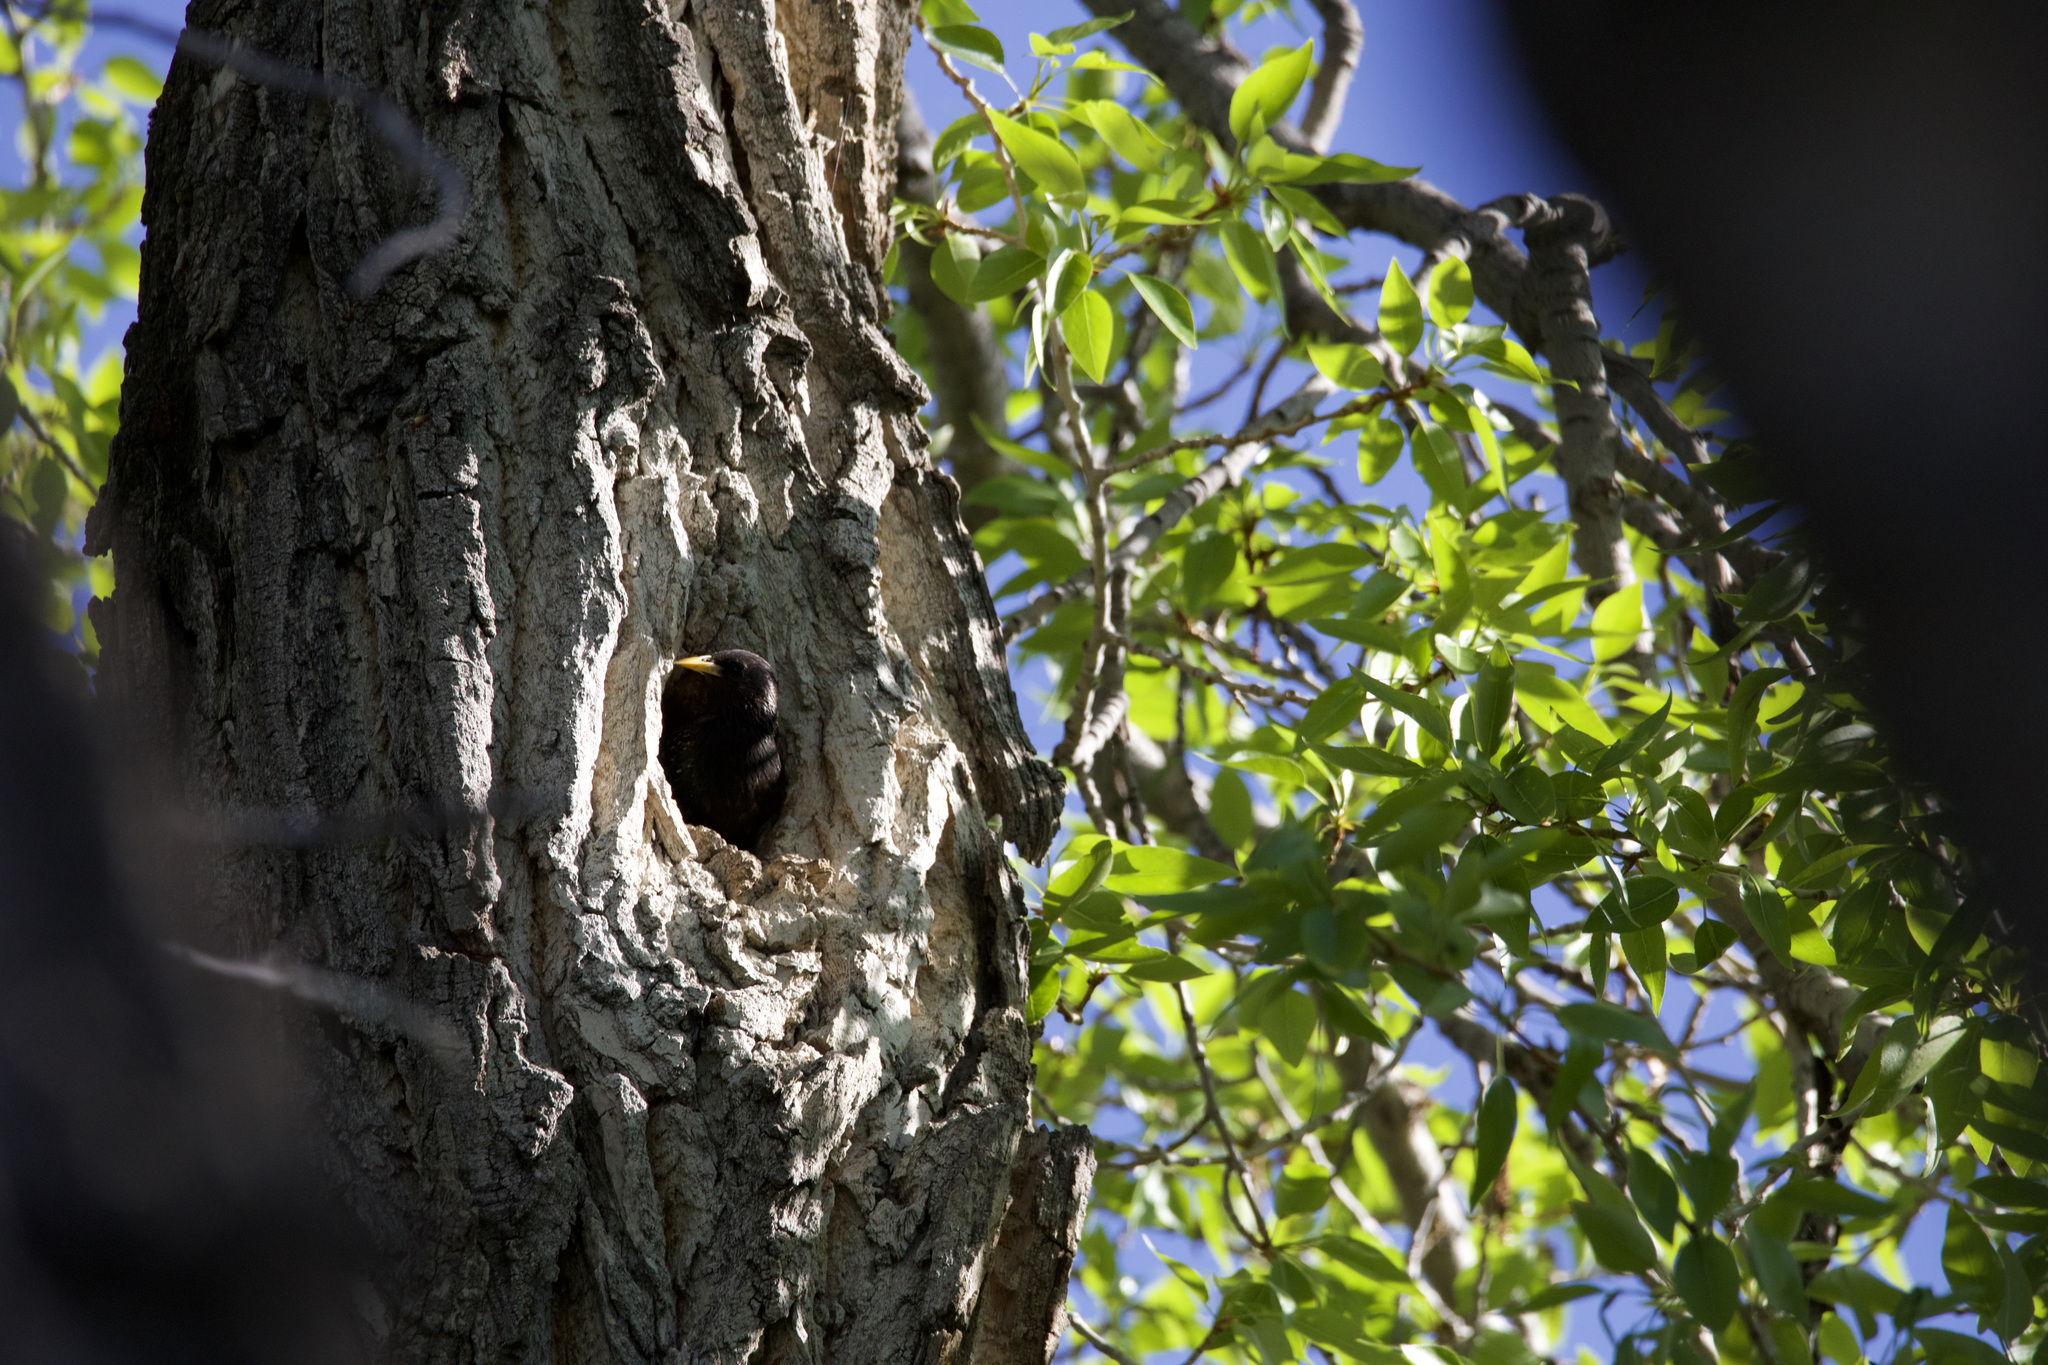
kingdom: Animalia
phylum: Chordata
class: Aves
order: Passeriformes
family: Sturnidae
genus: Sturnus
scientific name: Sturnus vulgaris
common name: Common starling
